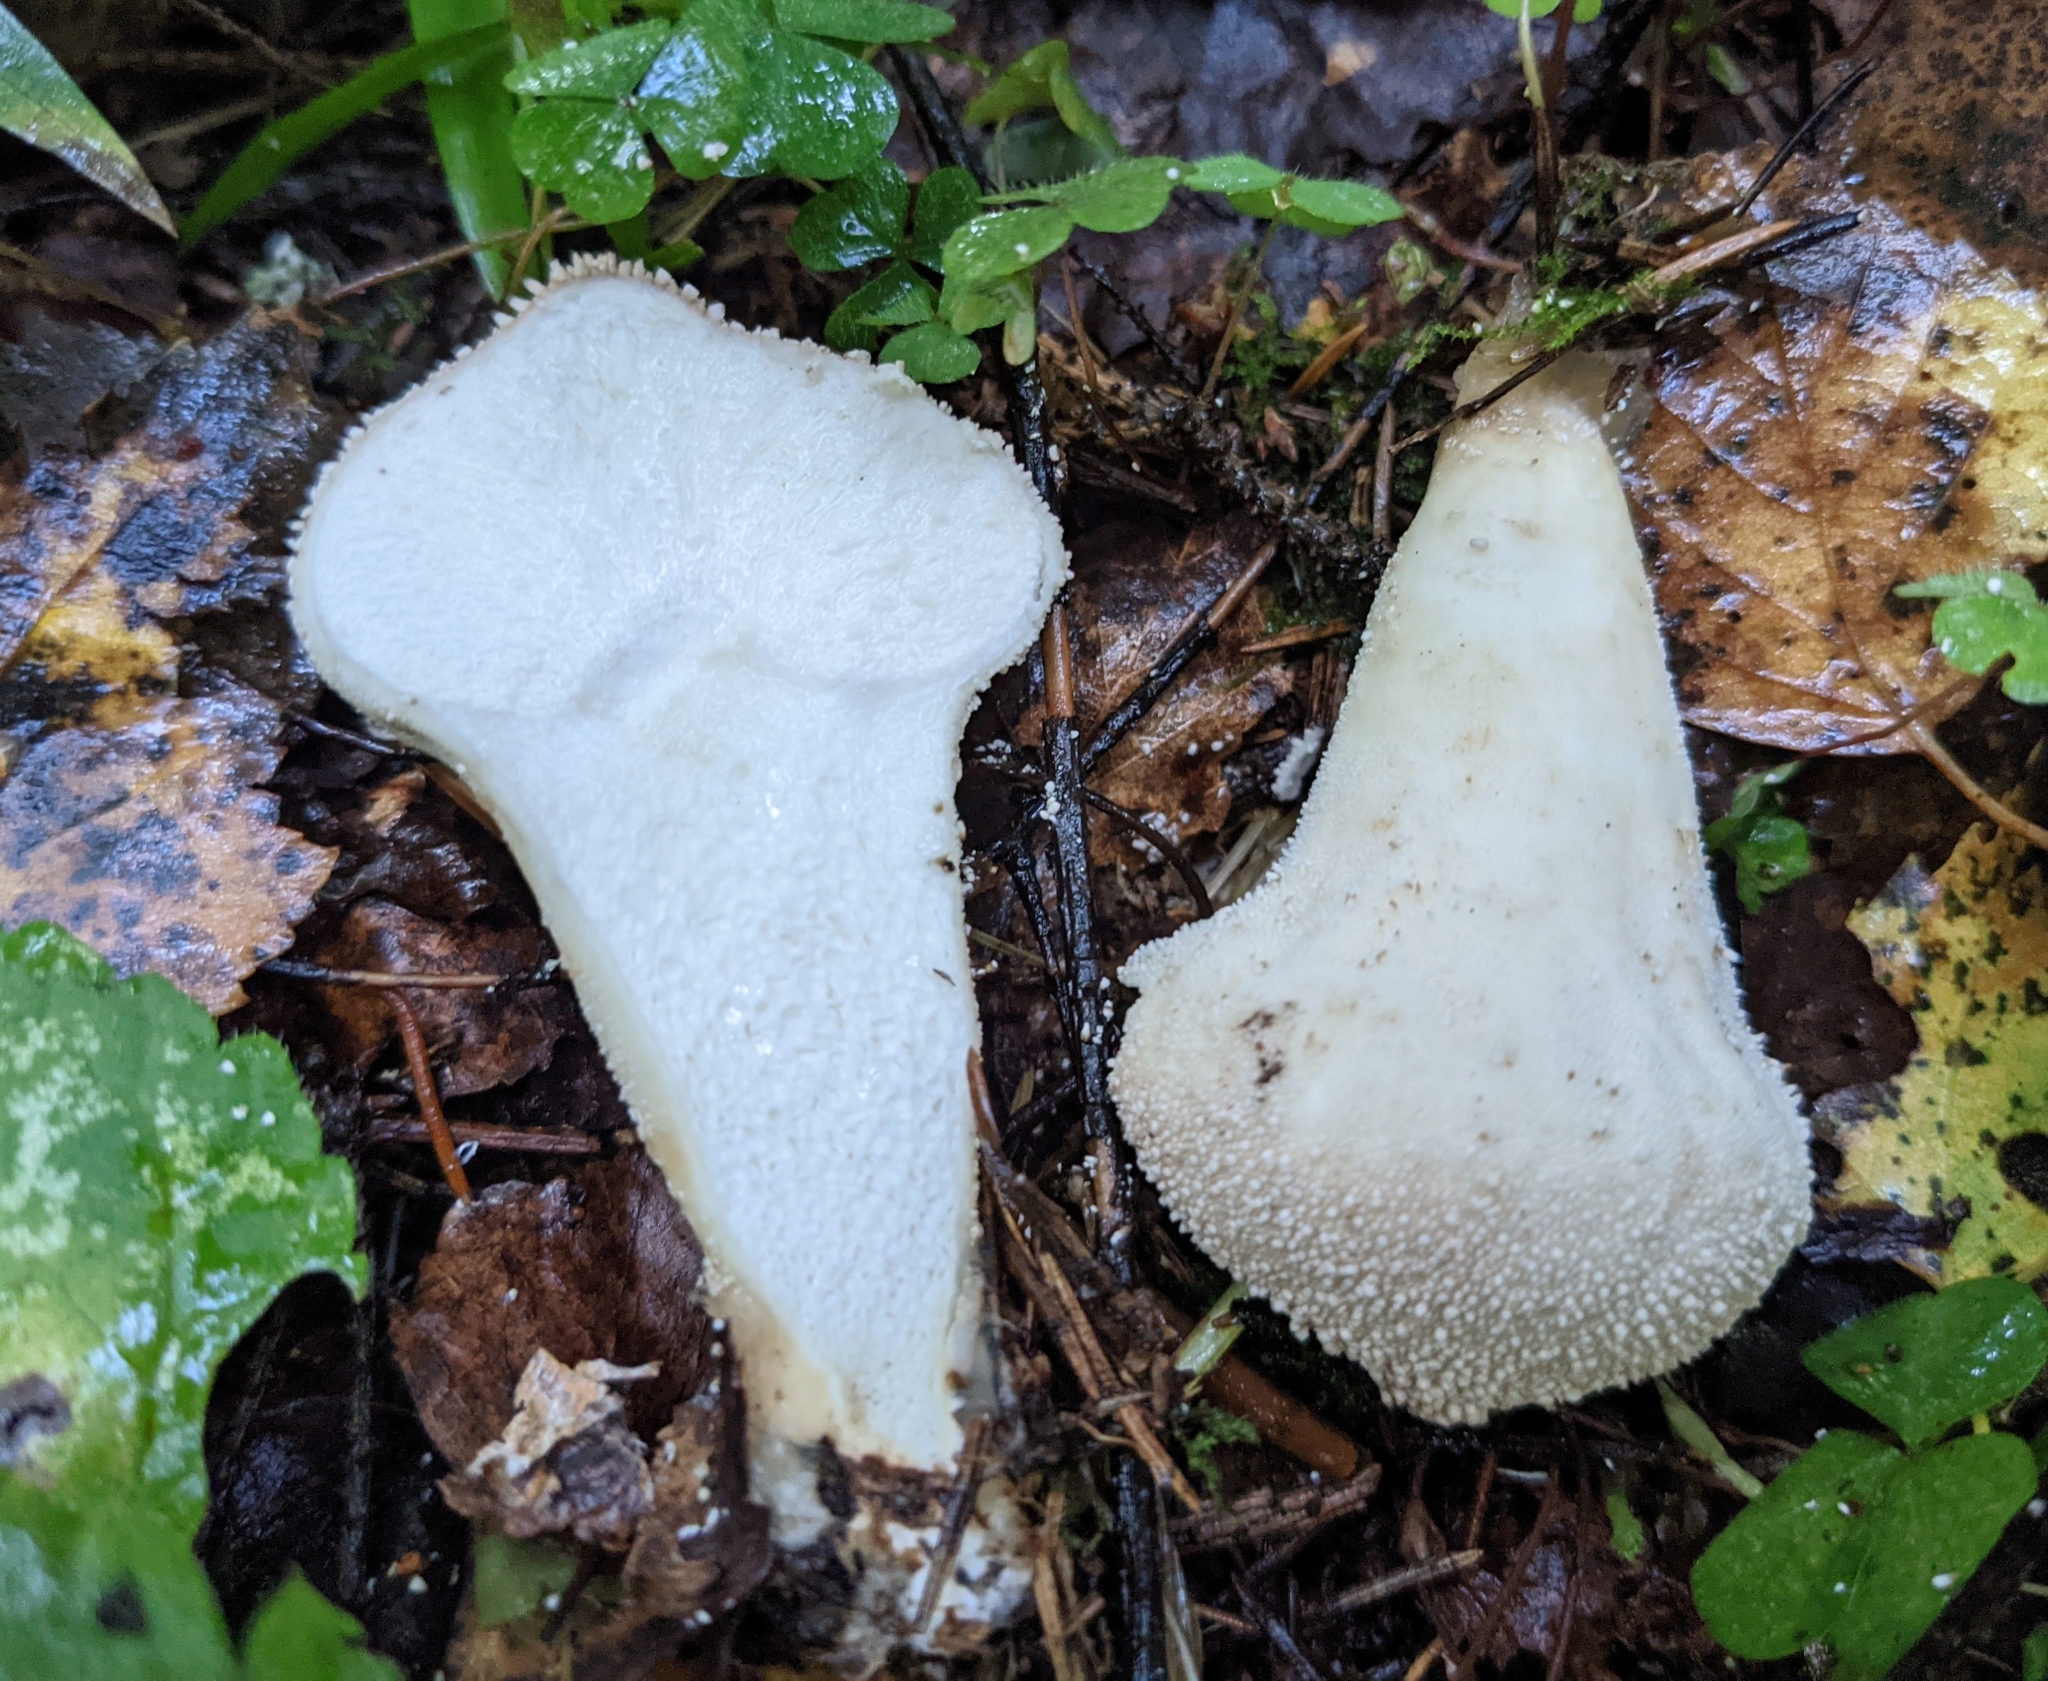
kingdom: Fungi
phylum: Basidiomycota
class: Agaricomycetes
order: Agaricales
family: Lycoperdaceae
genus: Lycoperdon
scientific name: Lycoperdon perlatum
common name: Common puffball
